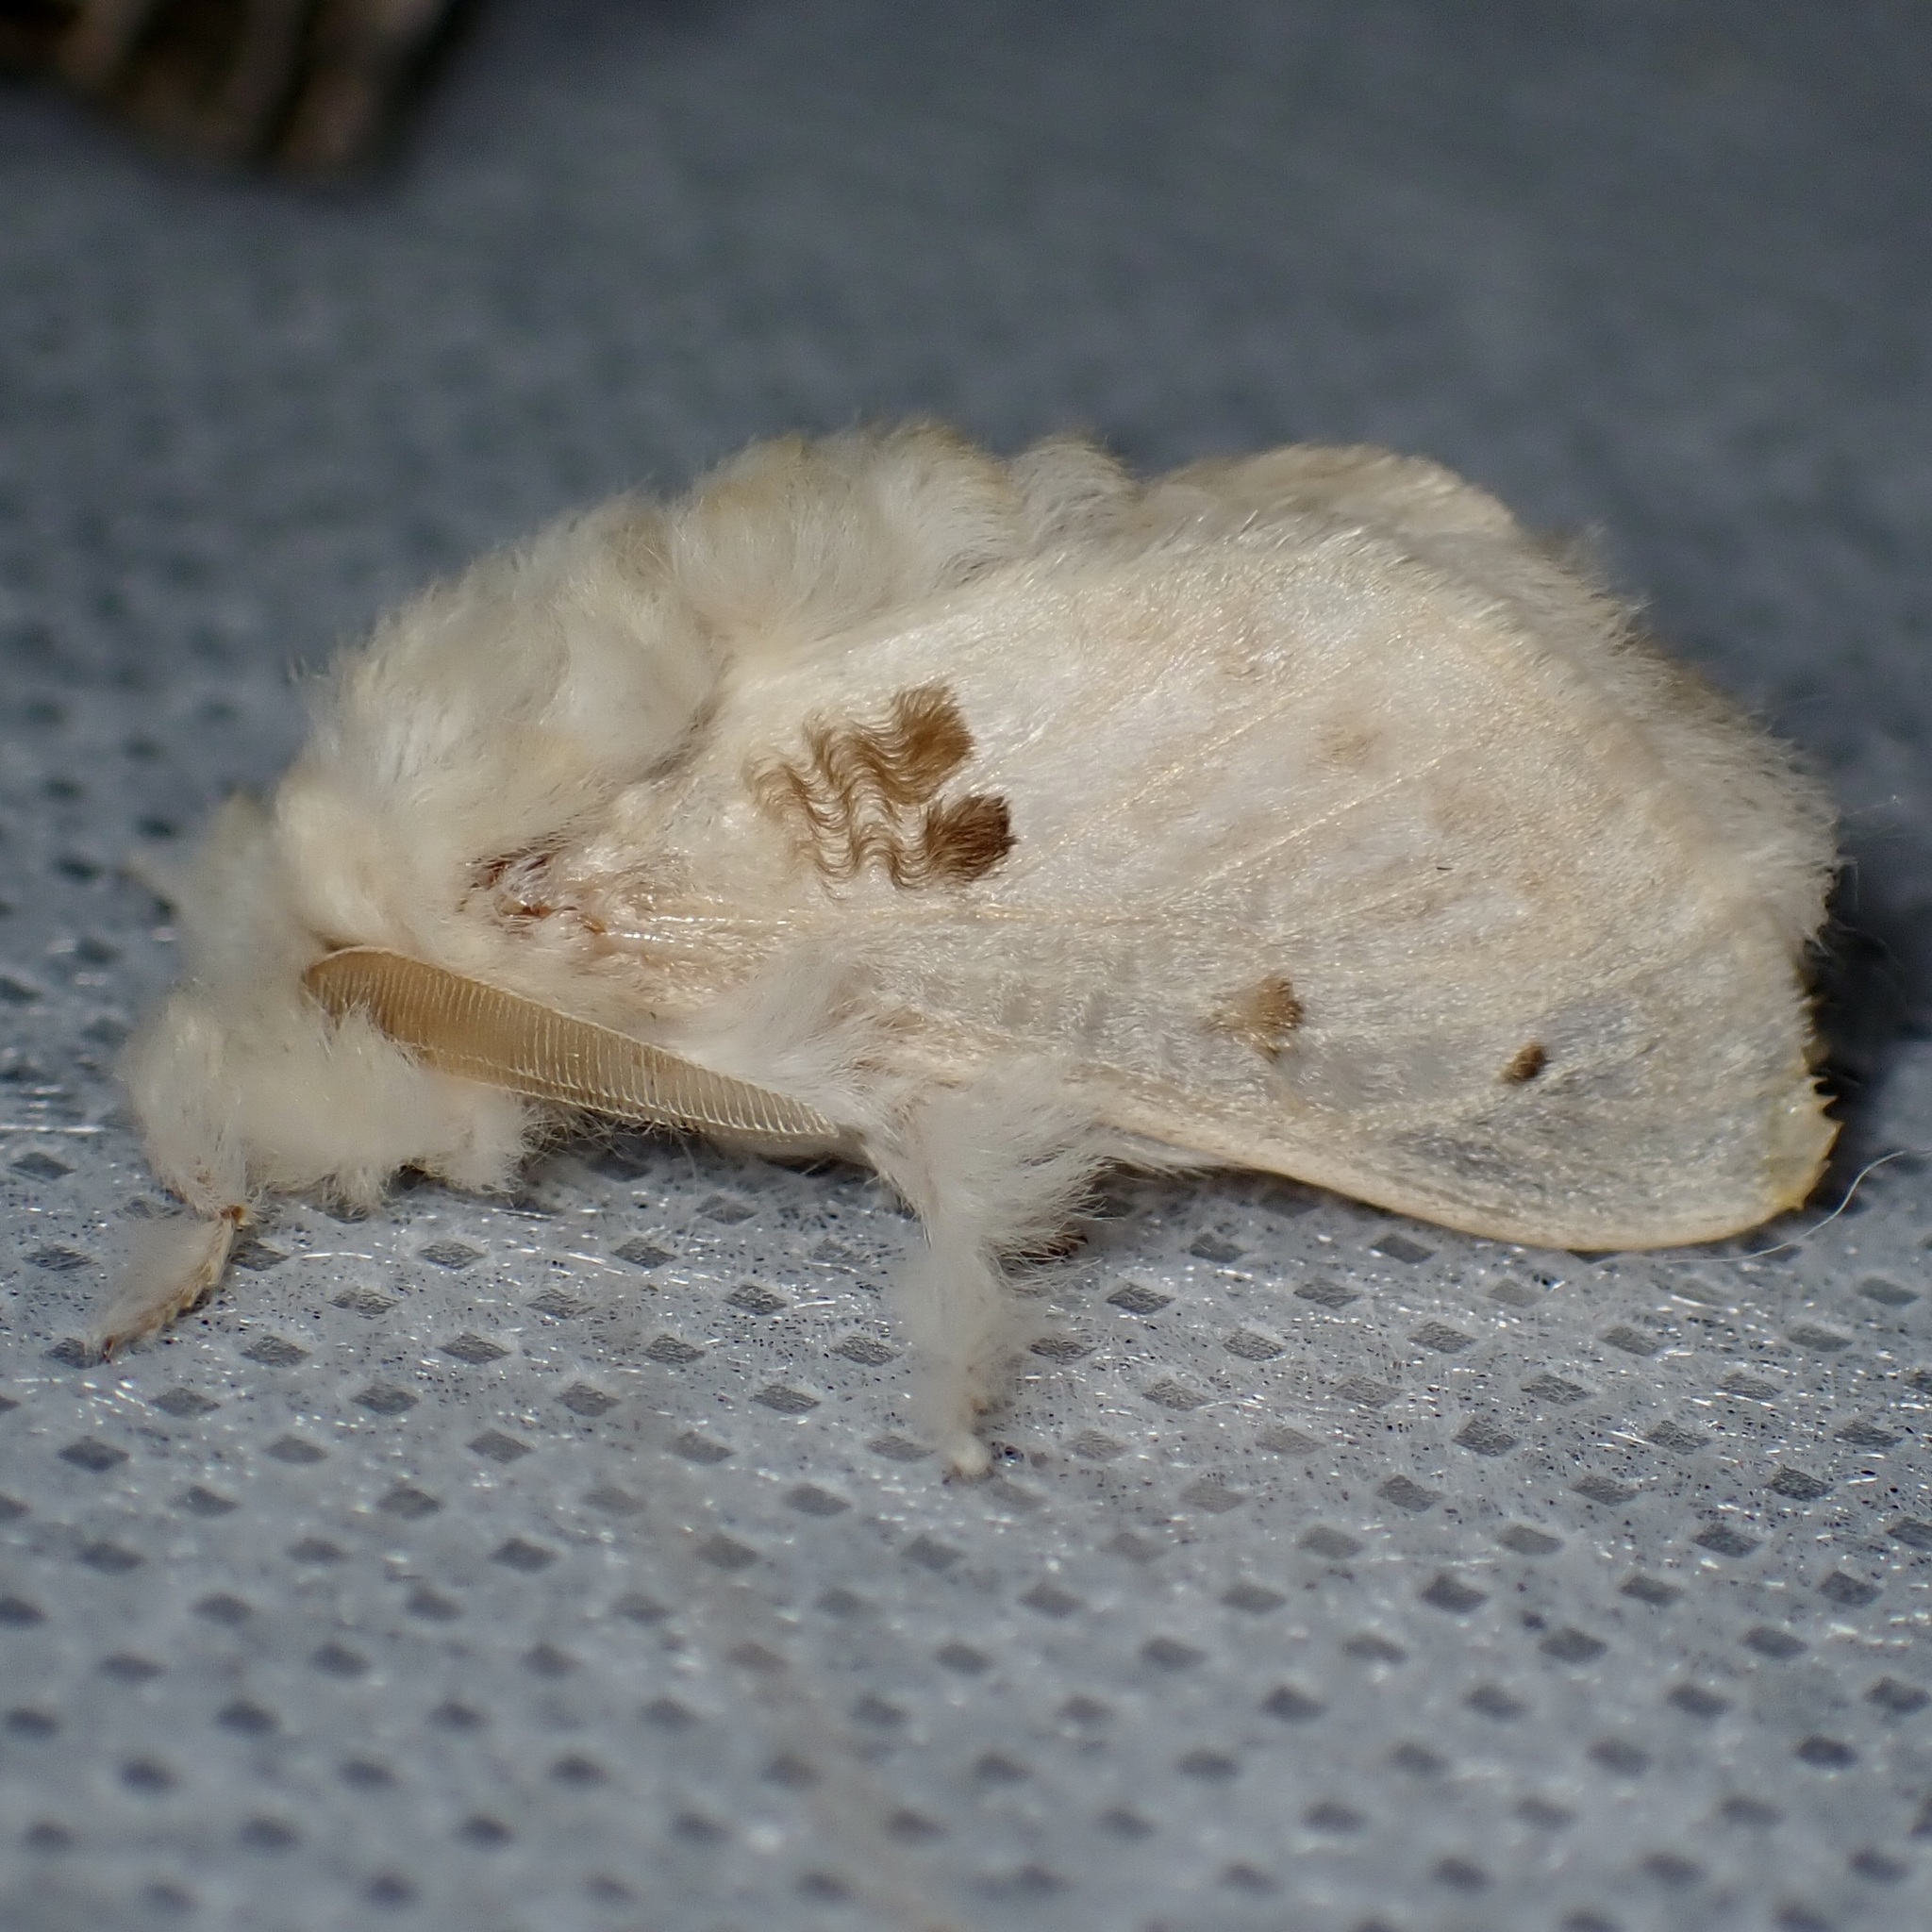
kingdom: Animalia
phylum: Arthropoda
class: Insecta
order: Lepidoptera
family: Megalopygidae
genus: Megalopyge
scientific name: Megalopyge lapena
